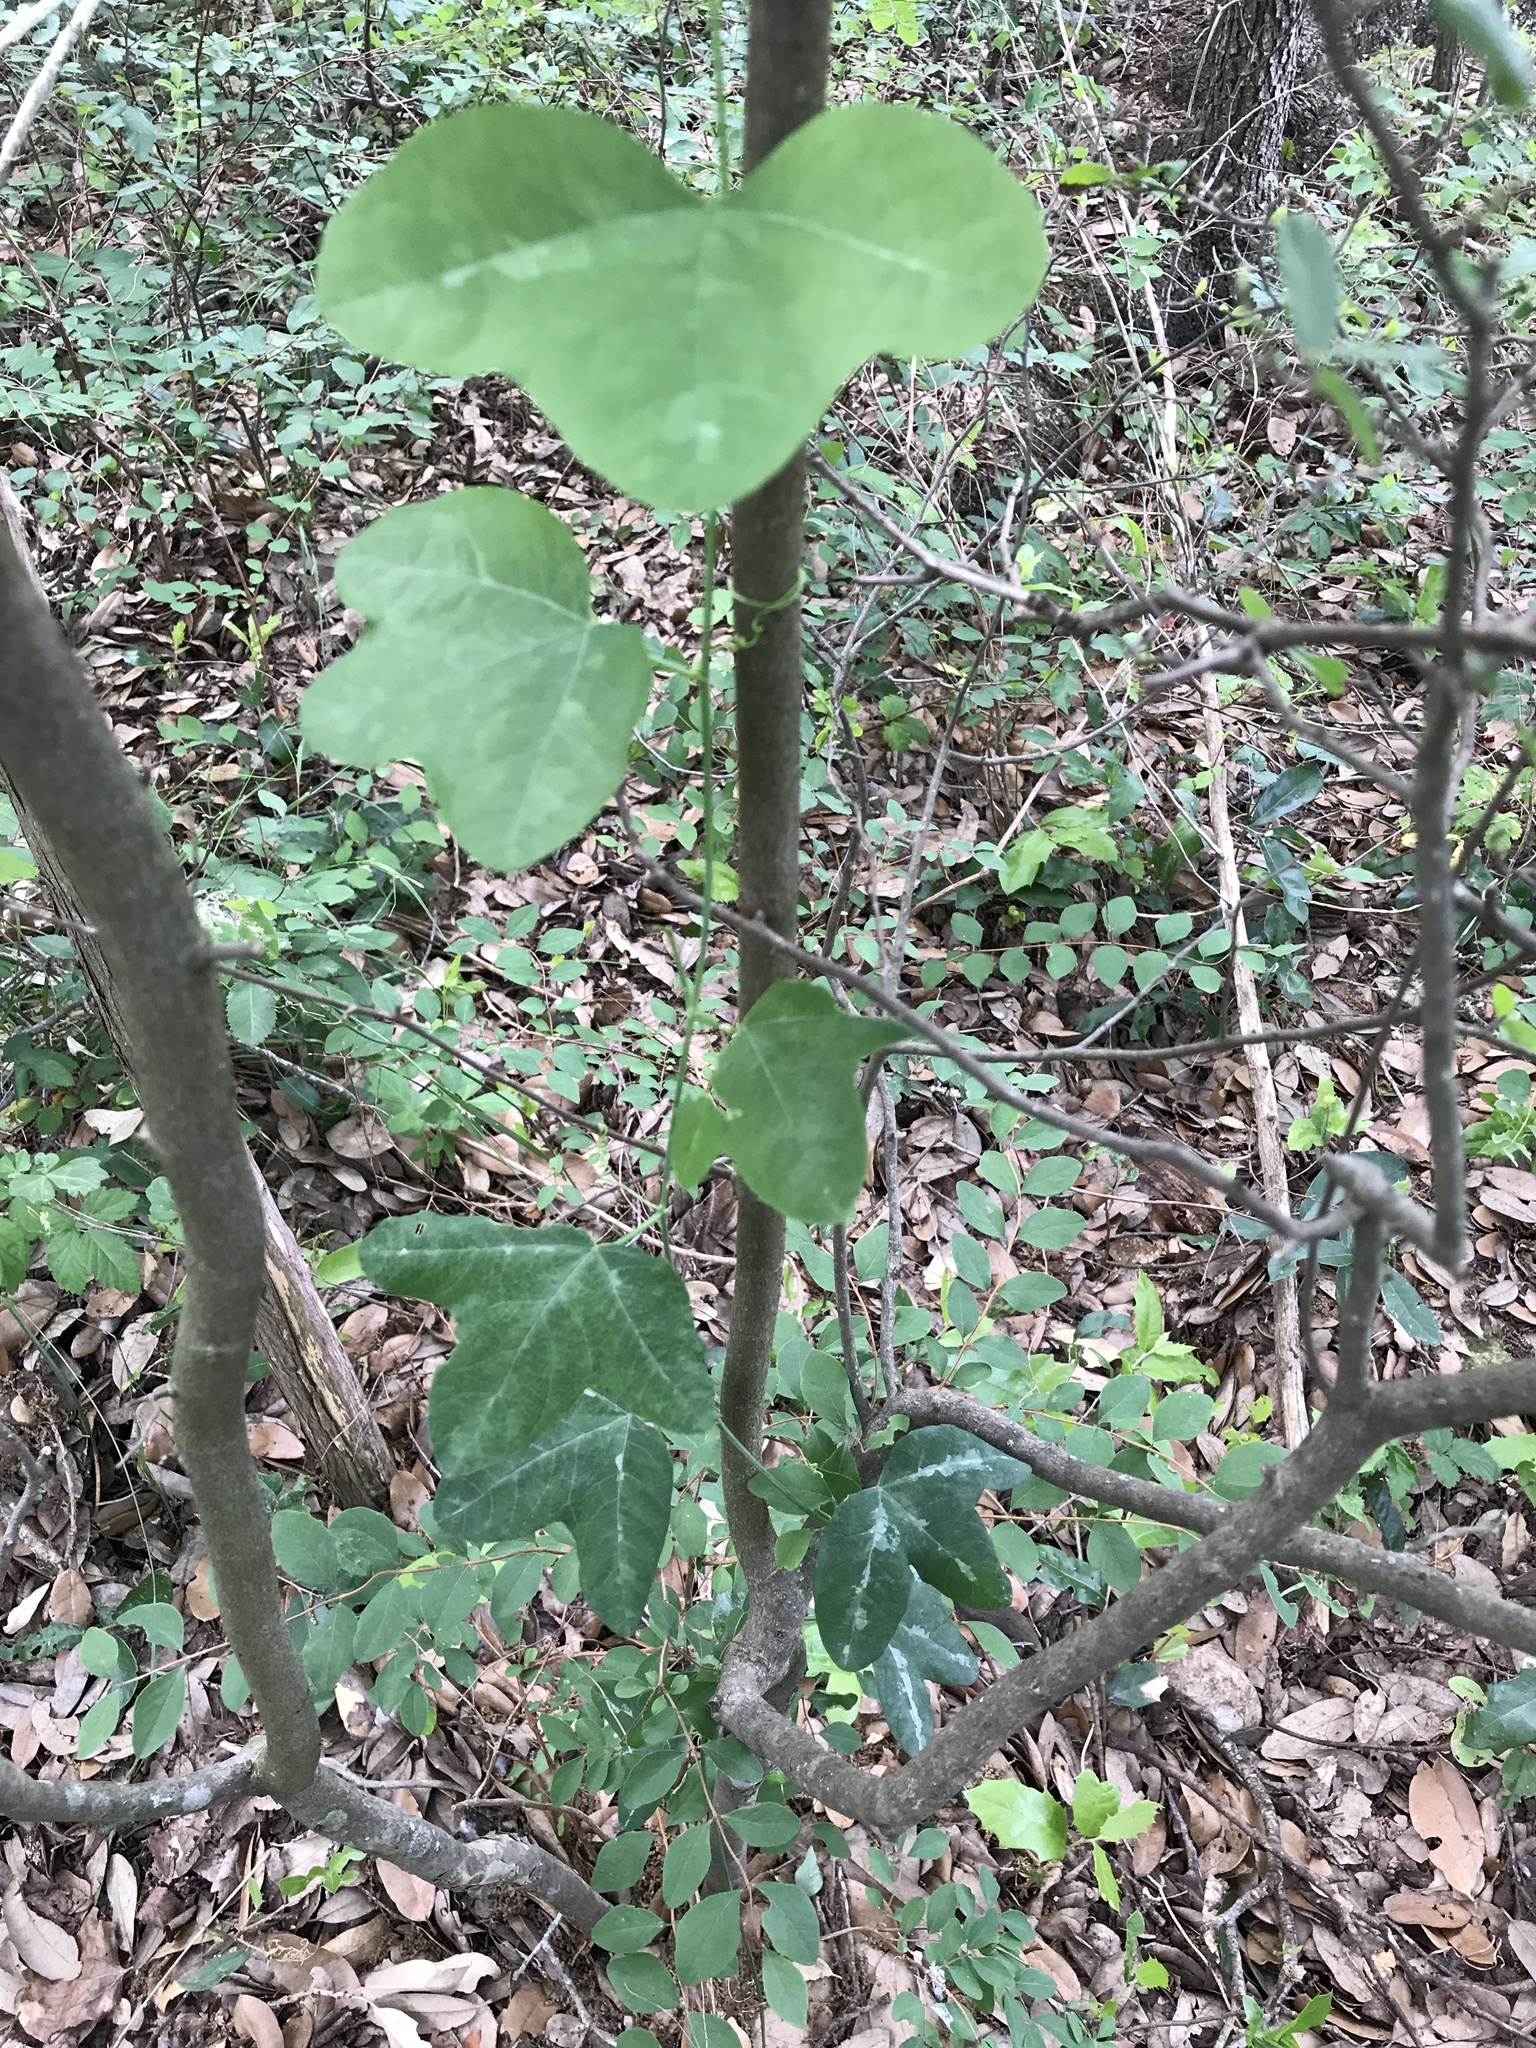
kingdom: Plantae
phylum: Tracheophyta
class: Magnoliopsida
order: Malpighiales
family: Passifloraceae
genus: Passiflora
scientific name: Passiflora lutea
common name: Yellow passionflower
